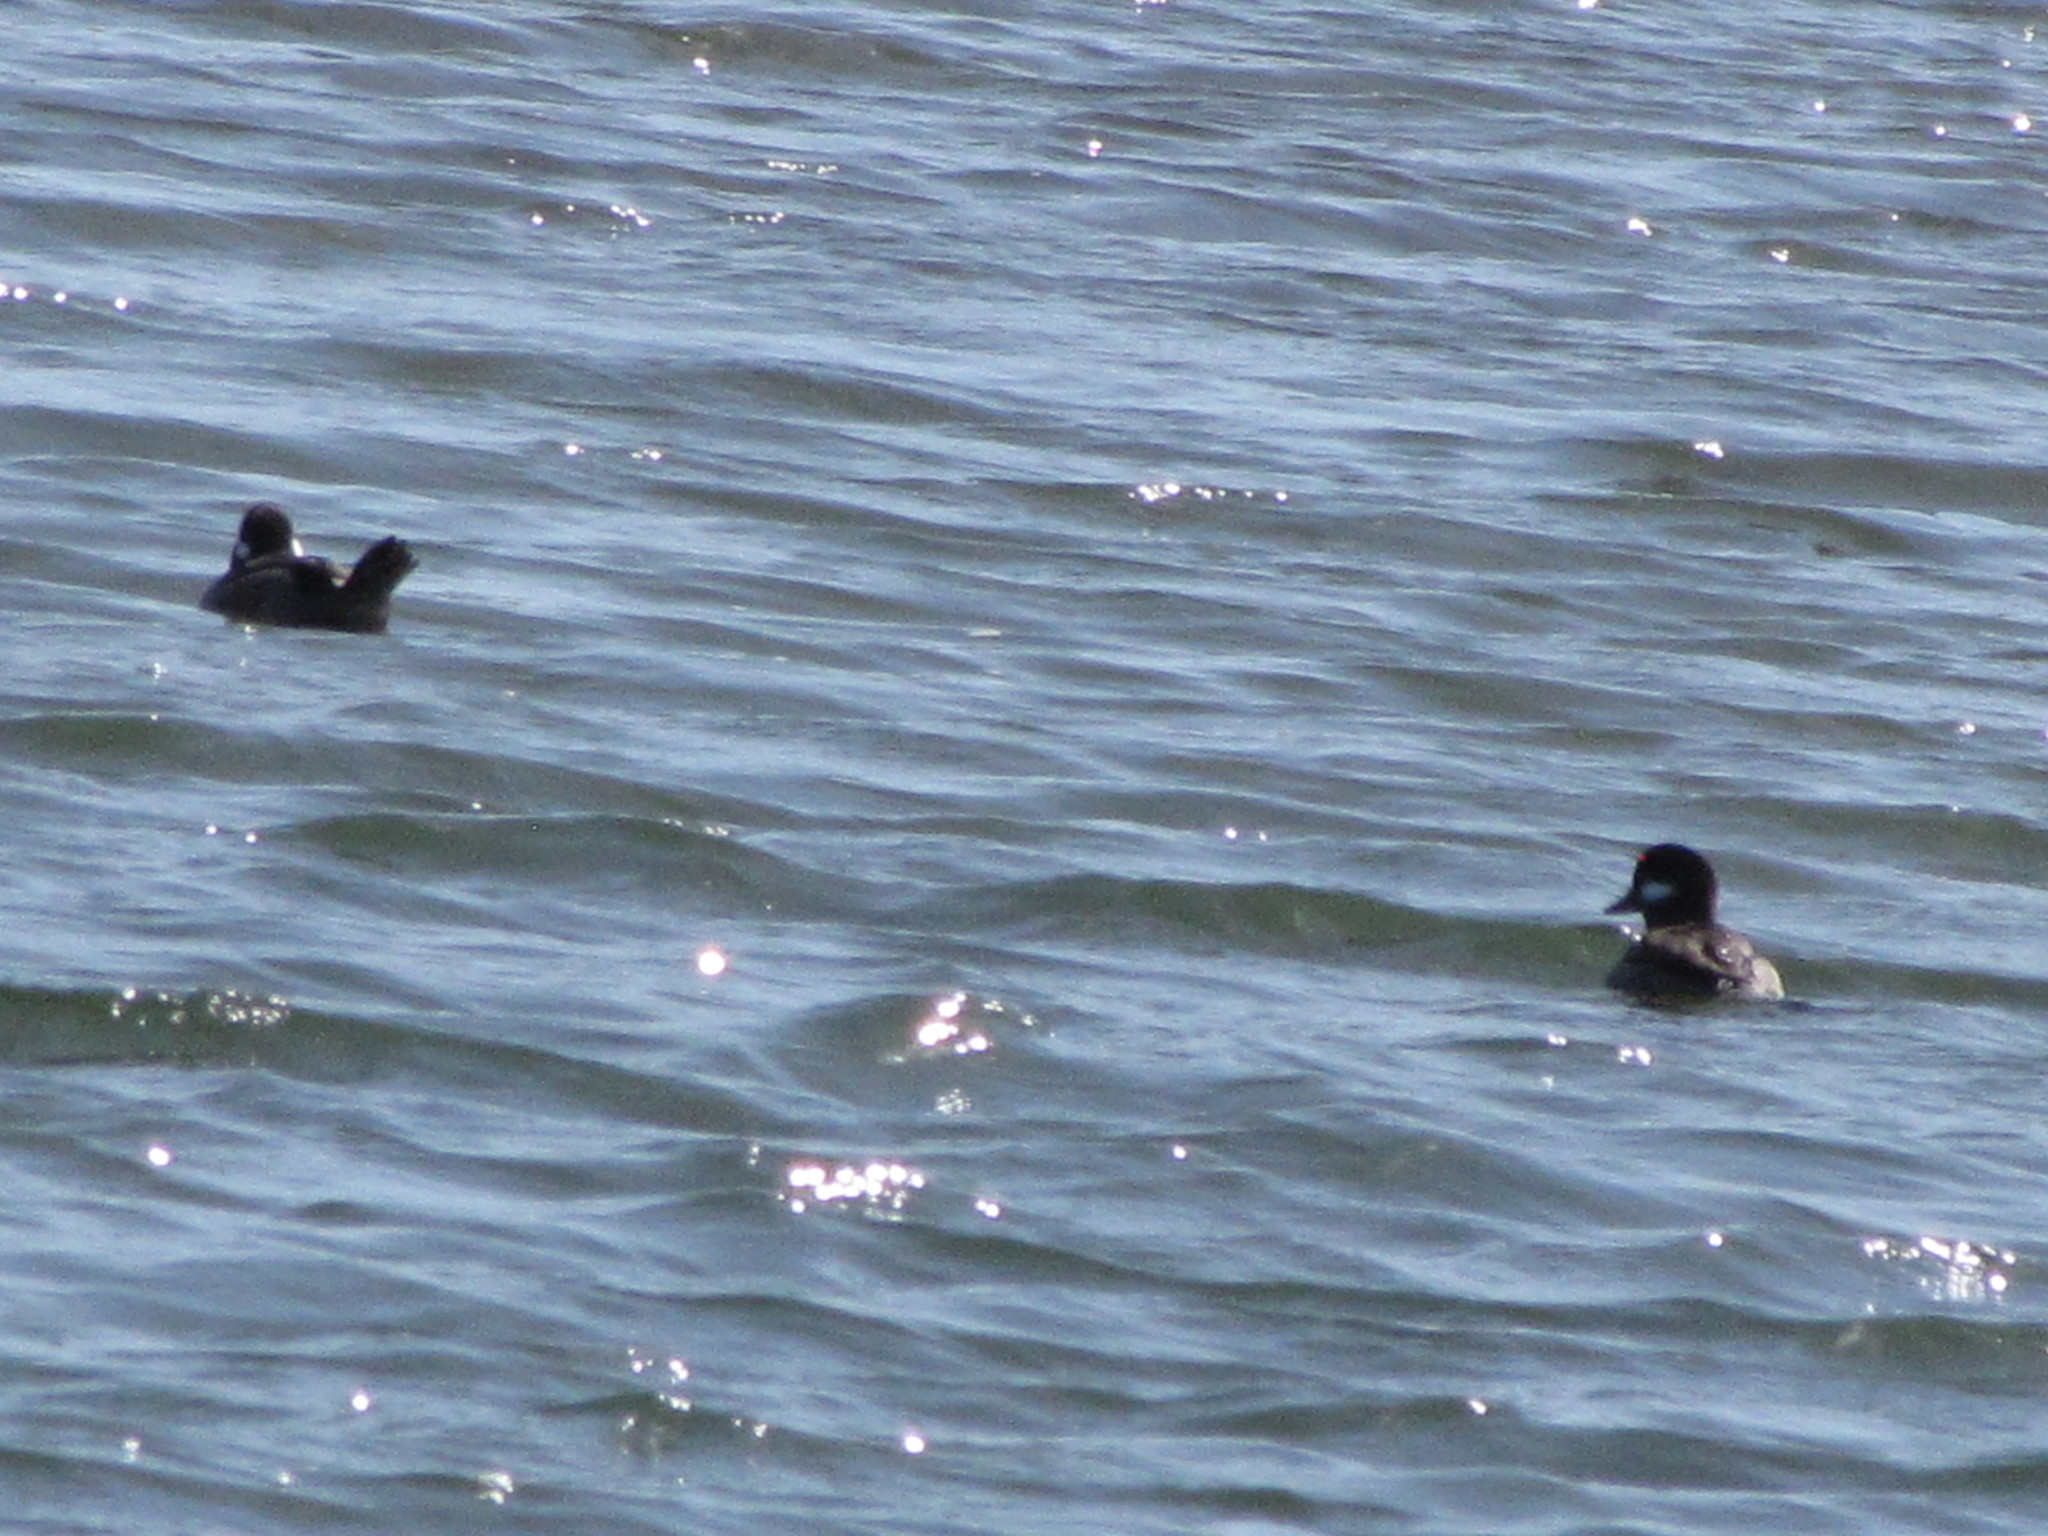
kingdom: Animalia
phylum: Chordata
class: Aves
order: Anseriformes
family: Anatidae
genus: Bucephala
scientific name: Bucephala albeola
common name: Bufflehead
